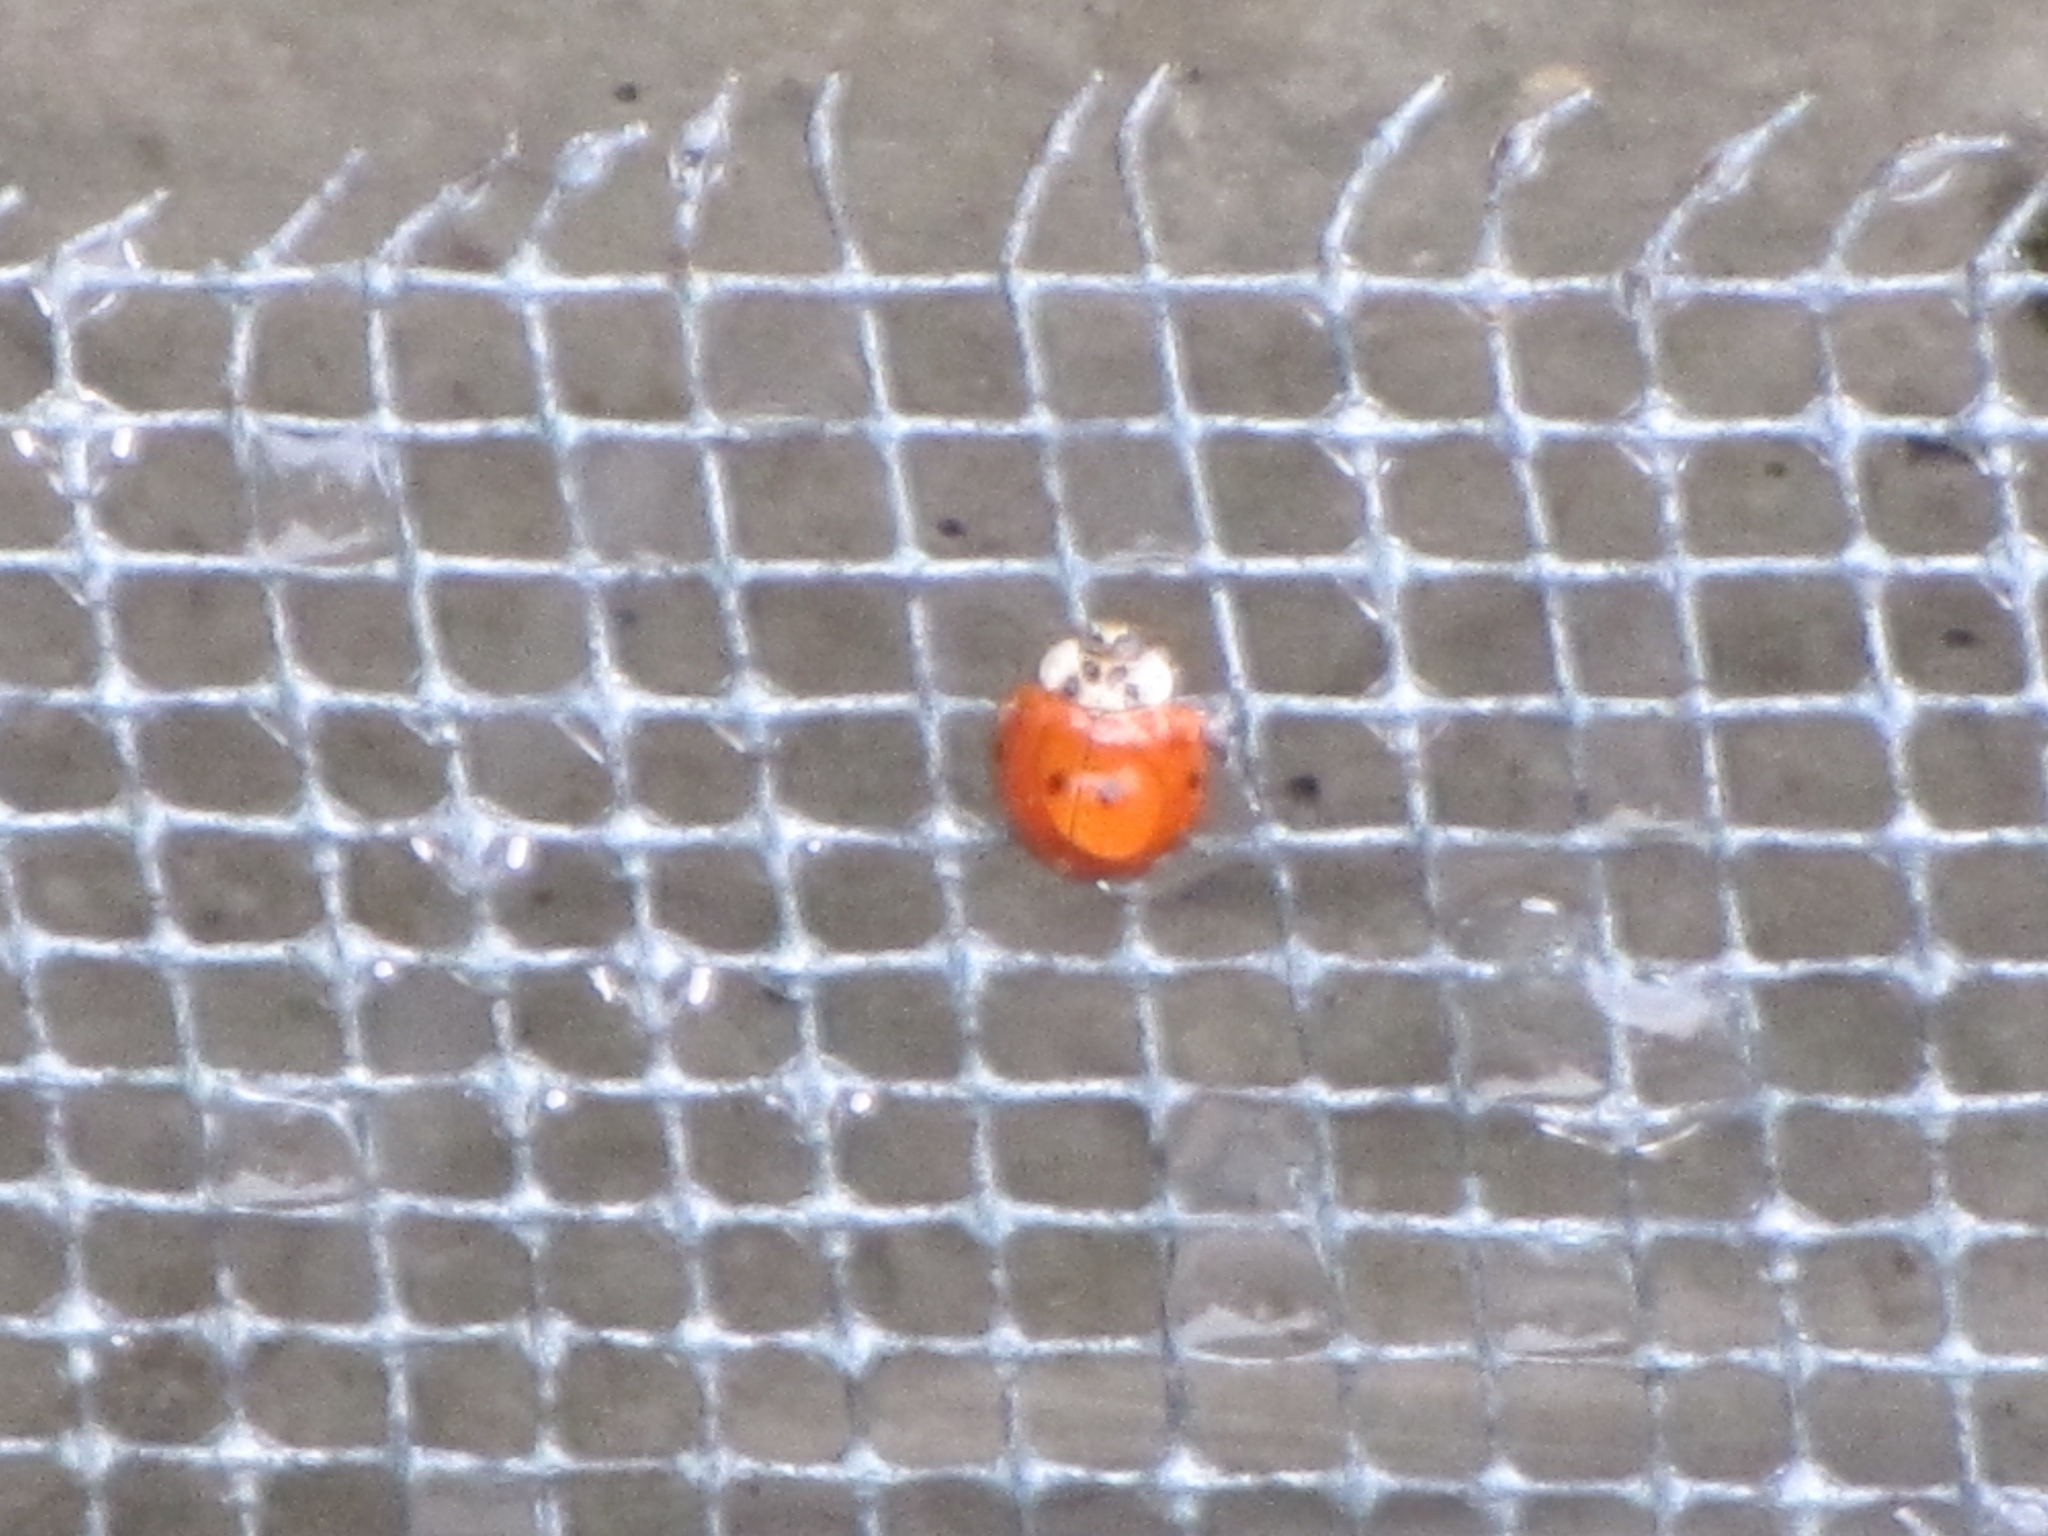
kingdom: Animalia
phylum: Arthropoda
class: Insecta
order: Coleoptera
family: Coccinellidae
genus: Harmonia
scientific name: Harmonia axyridis
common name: Harlequin ladybird
